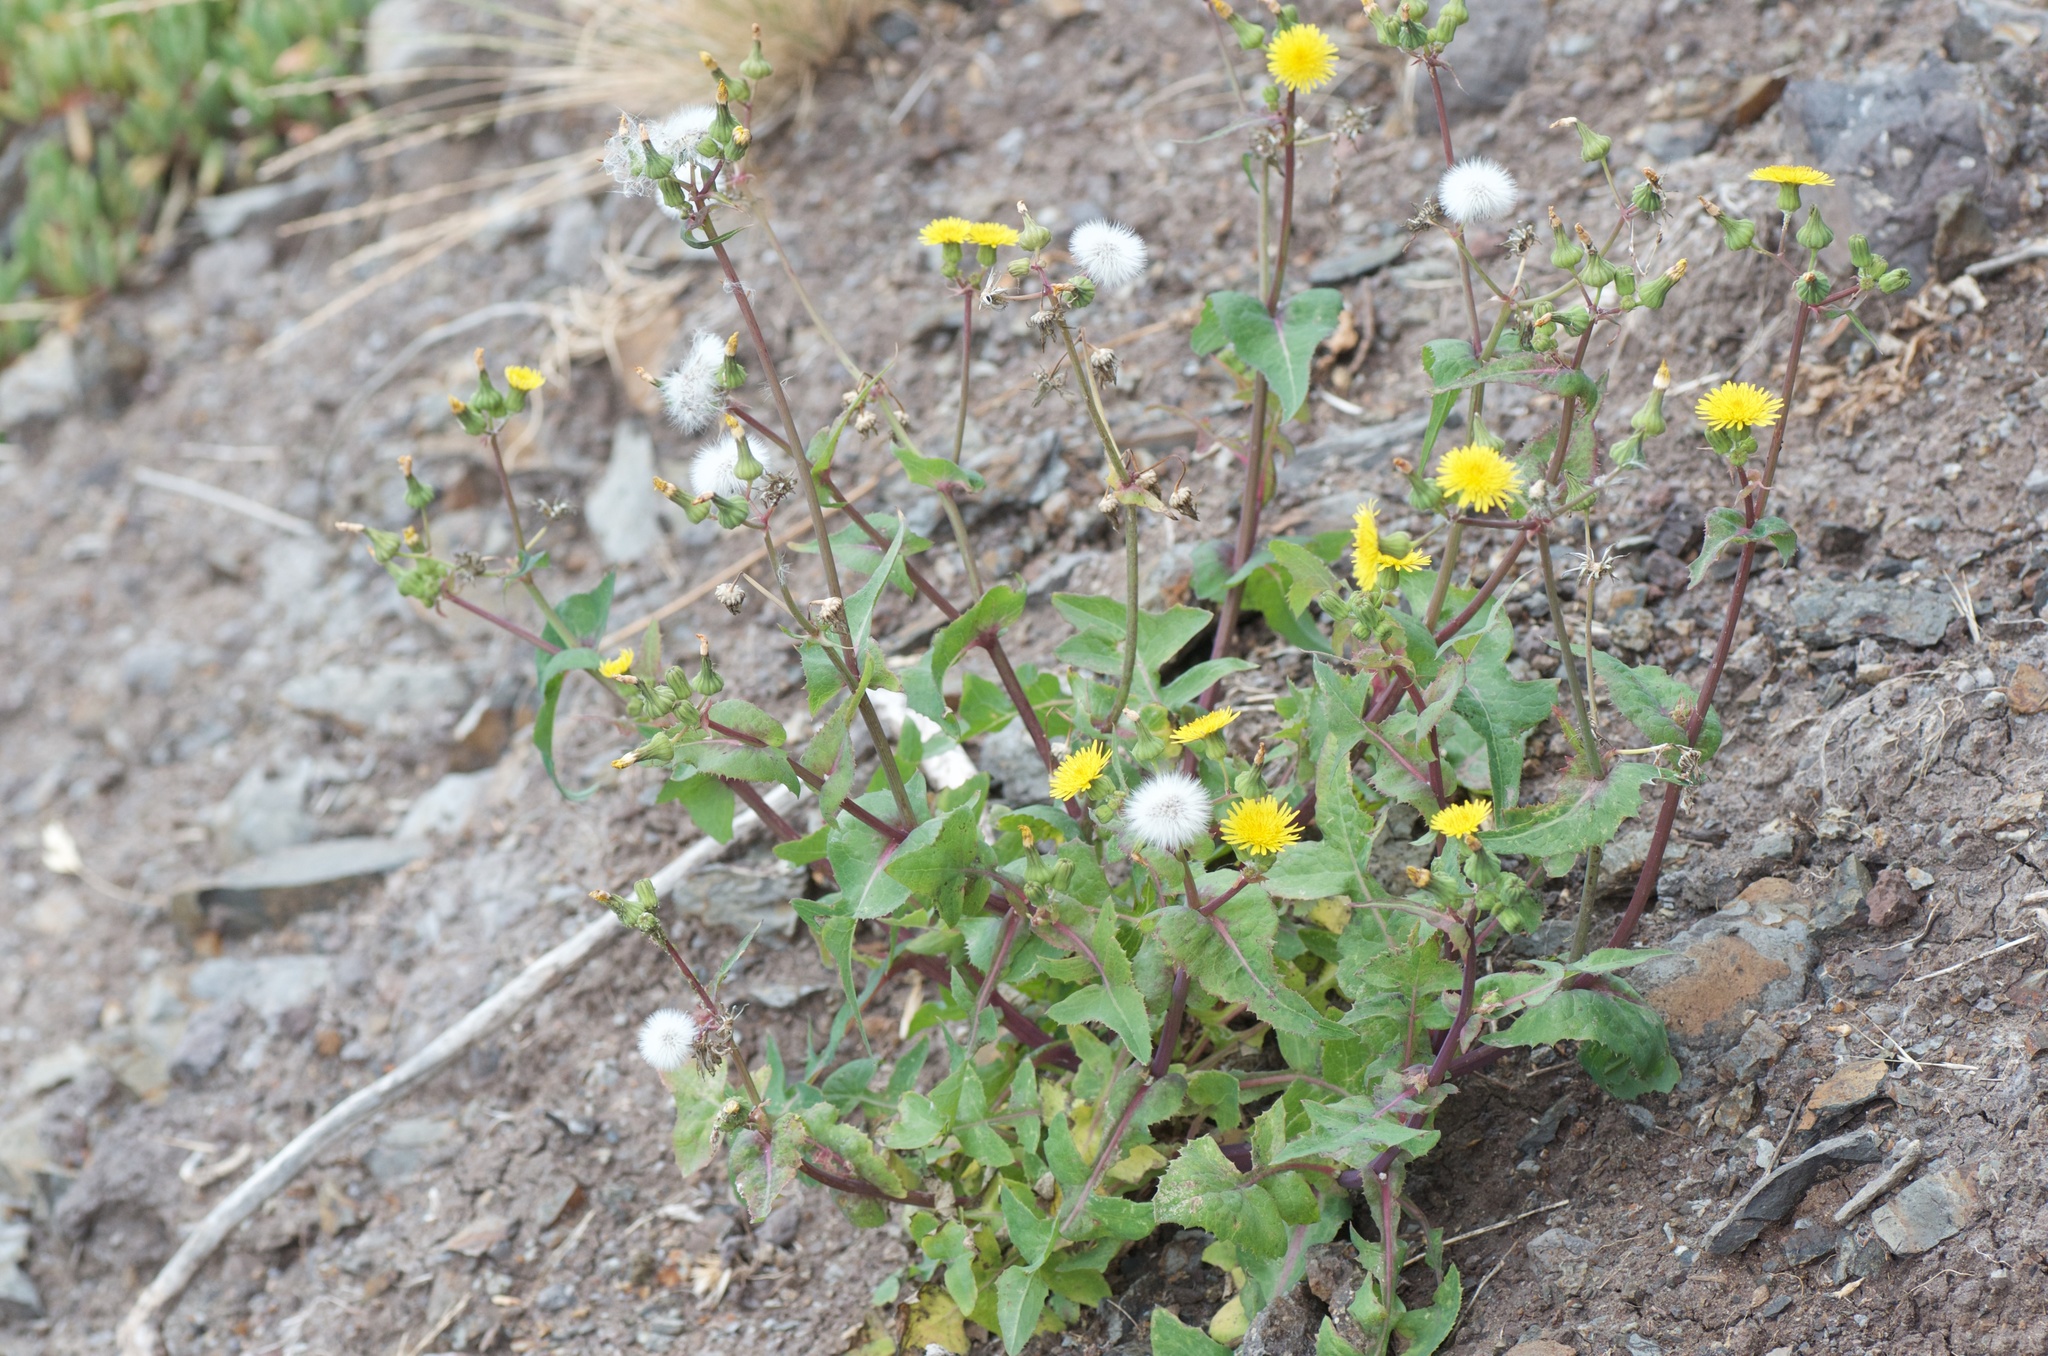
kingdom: Plantae
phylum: Tracheophyta
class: Magnoliopsida
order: Asterales
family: Asteraceae
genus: Sonchus
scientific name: Sonchus oleraceus
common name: Common sowthistle
